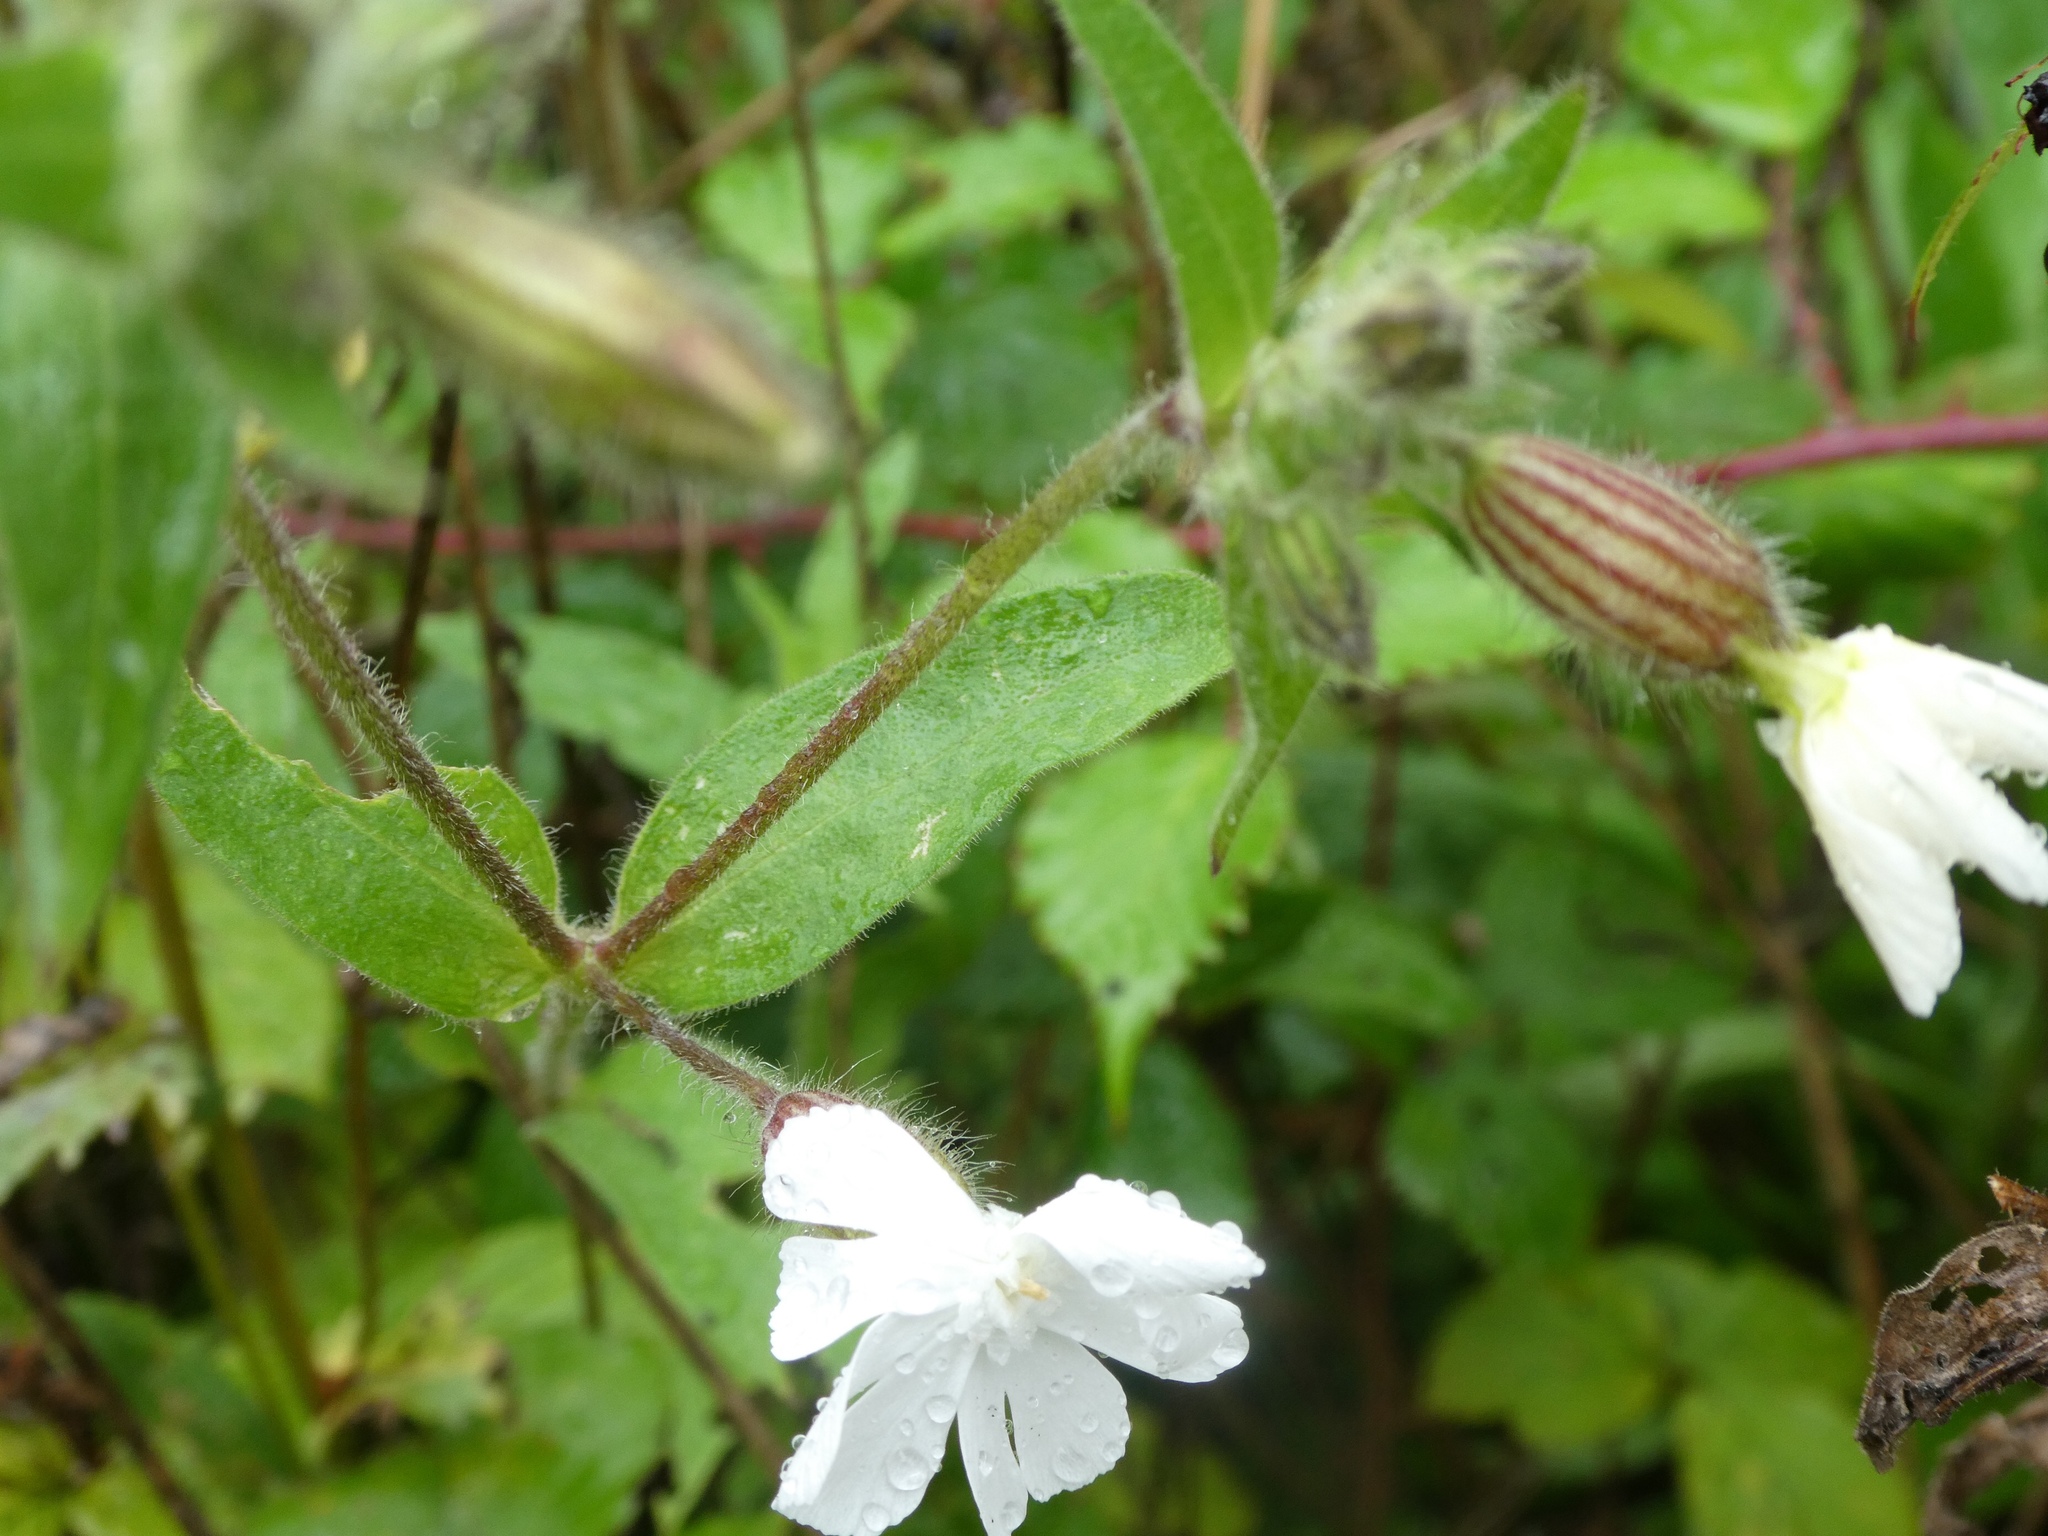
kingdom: Plantae
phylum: Tracheophyta
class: Magnoliopsida
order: Caryophyllales
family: Caryophyllaceae
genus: Silene
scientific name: Silene latifolia
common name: White campion
